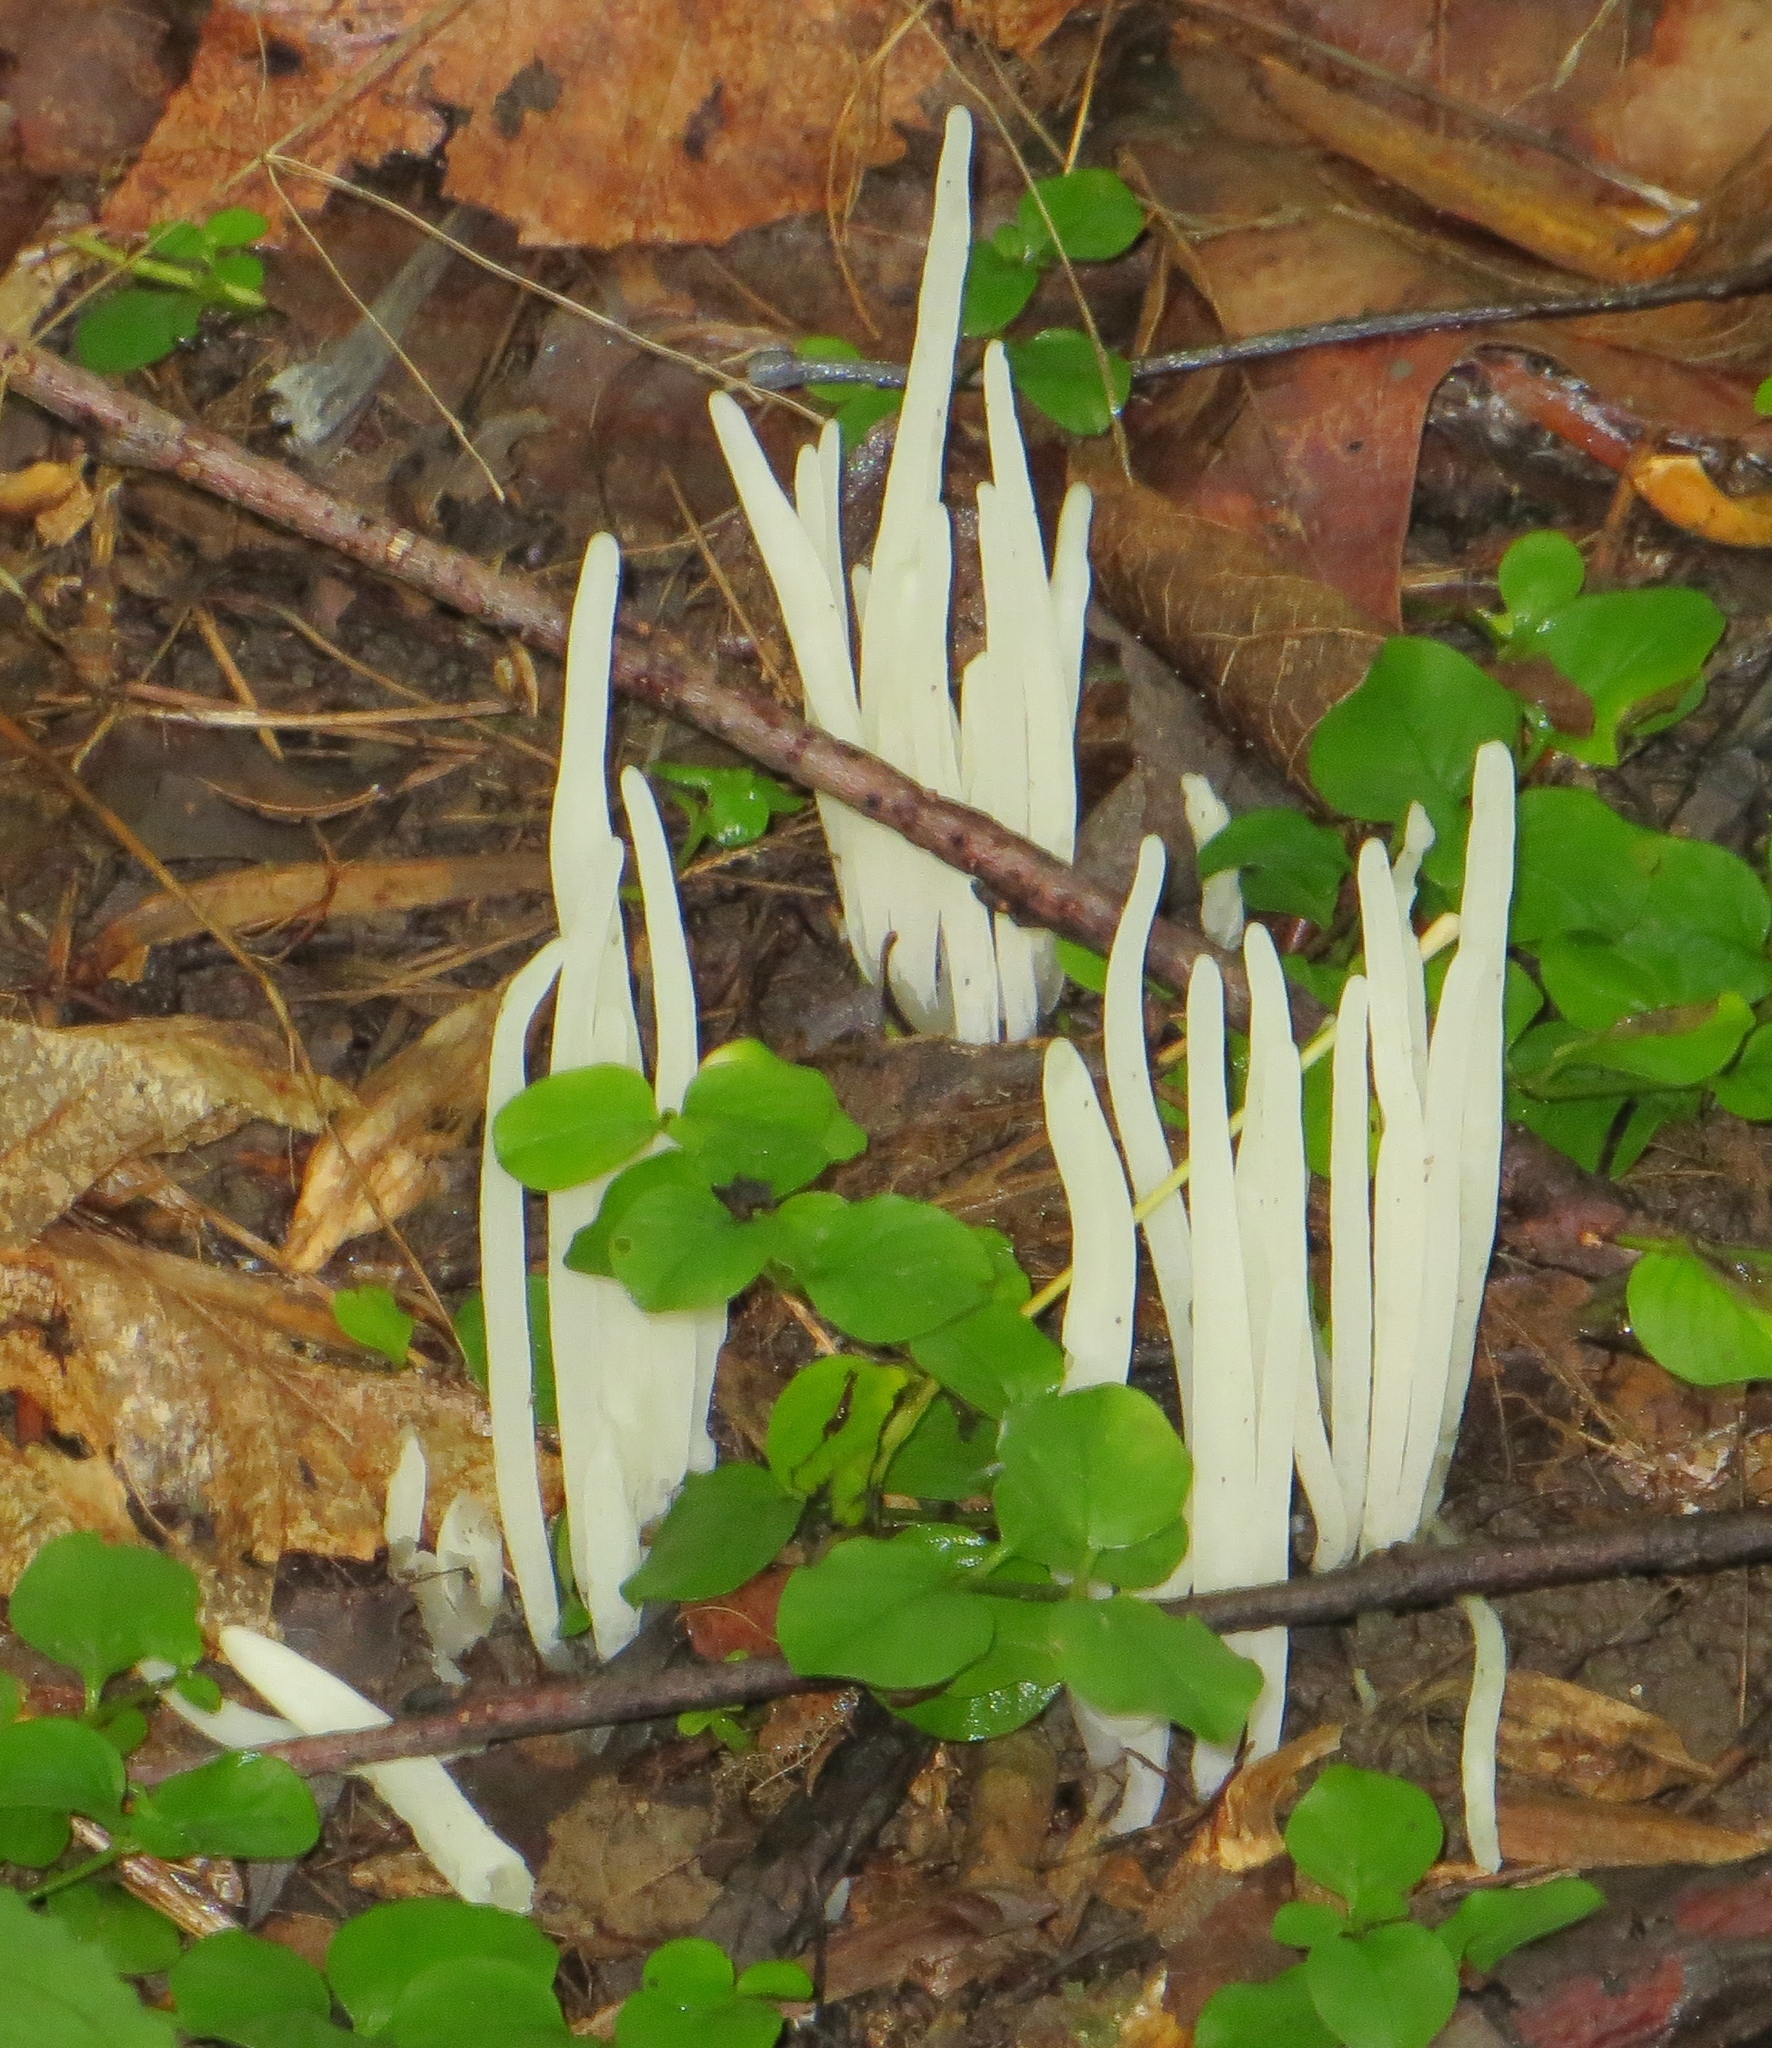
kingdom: Fungi
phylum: Basidiomycota
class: Agaricomycetes
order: Agaricales
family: Clavariaceae
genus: Clavaria
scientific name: Clavaria fragilis
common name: White spindles
